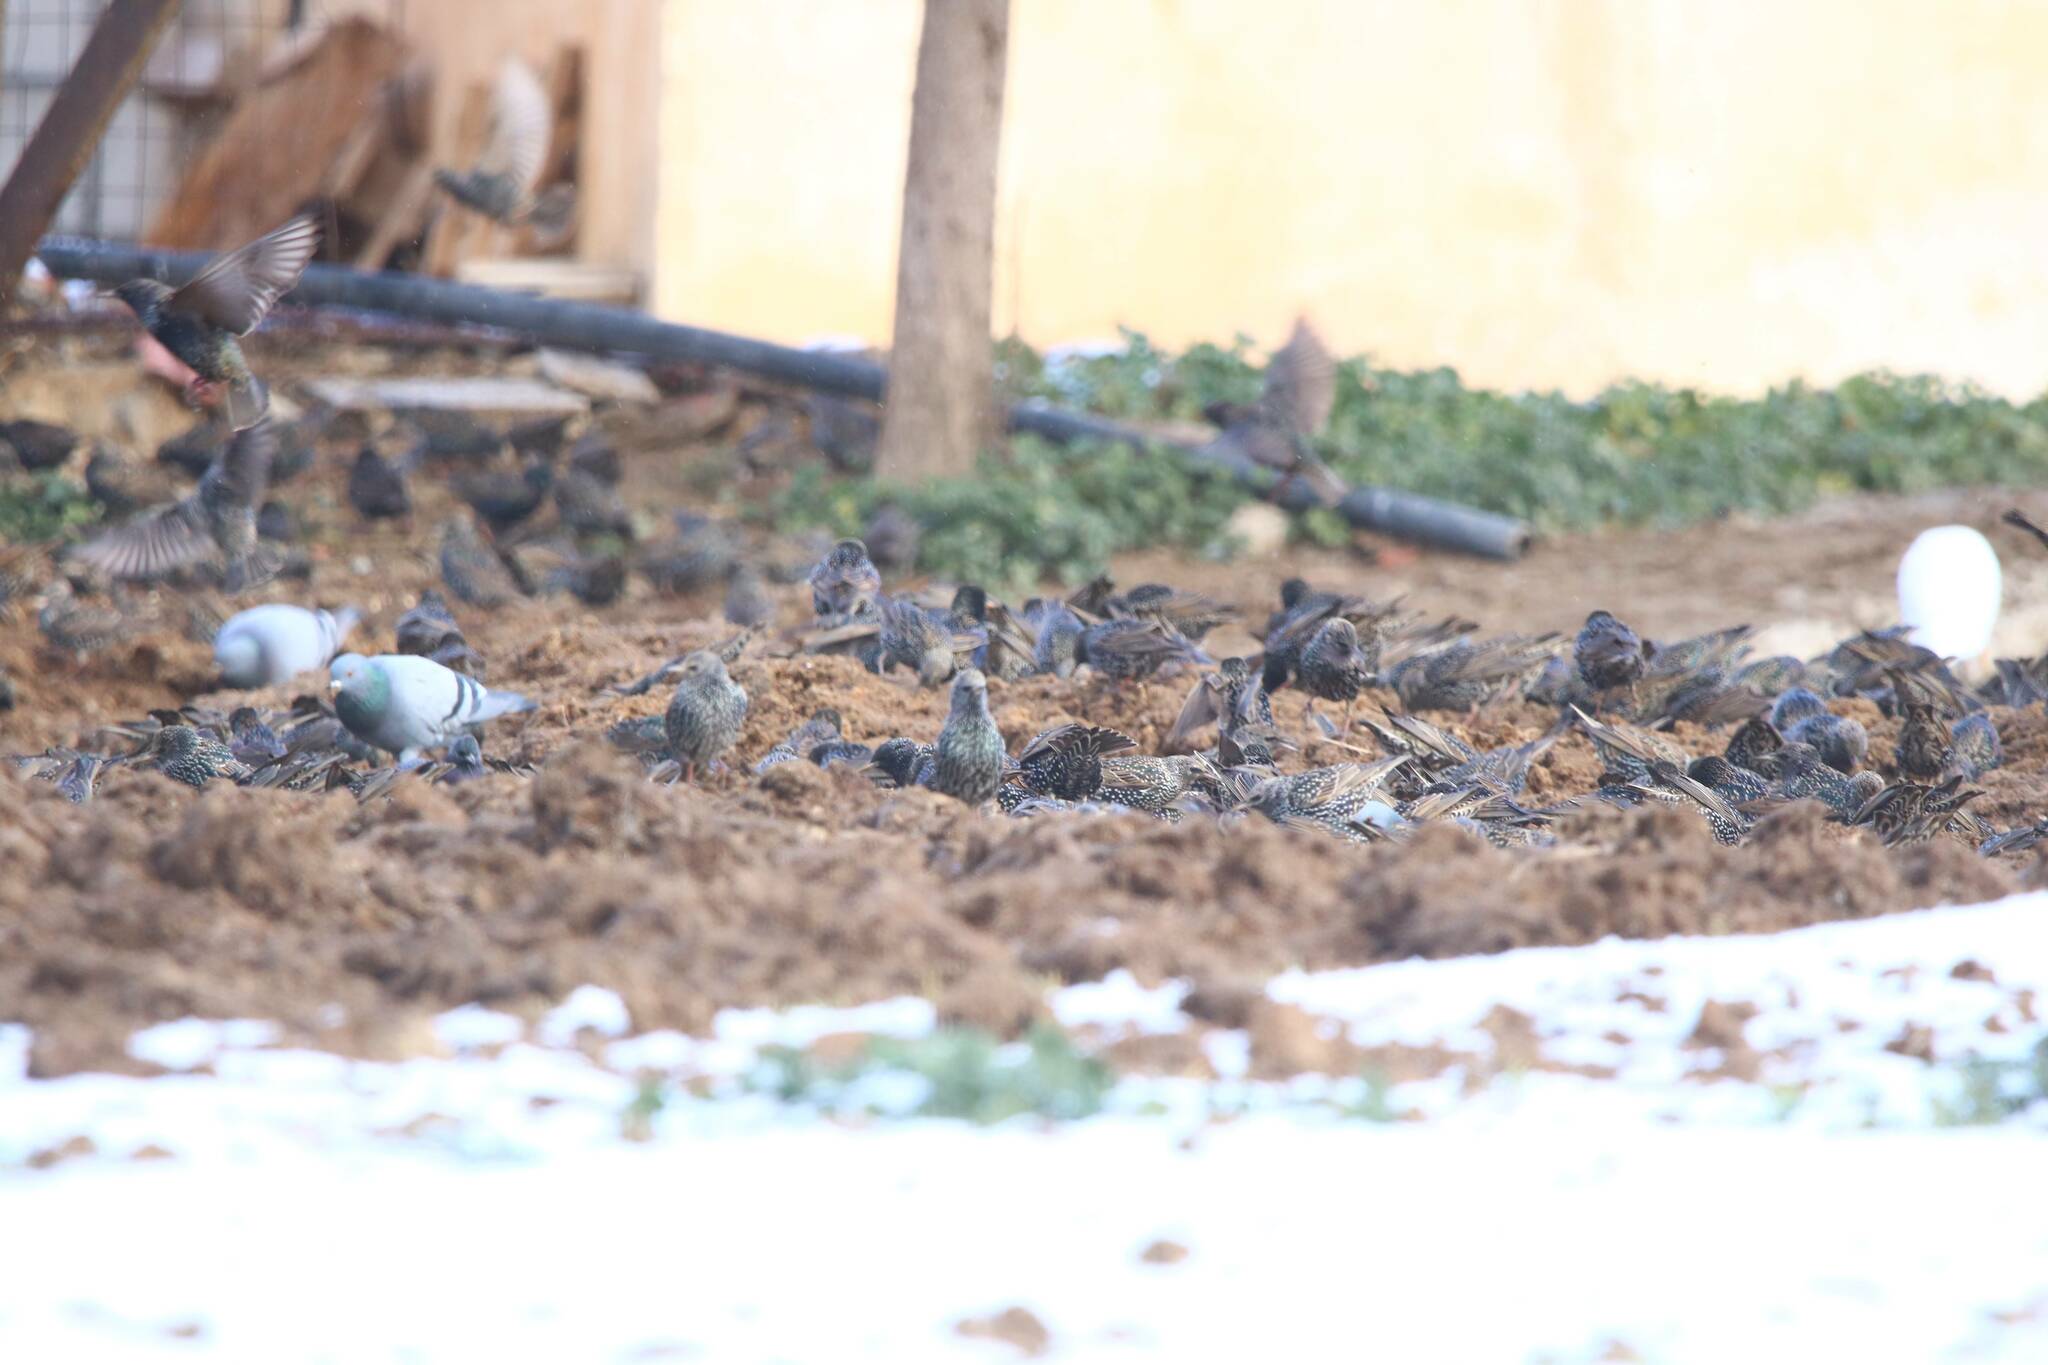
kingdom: Animalia
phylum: Chordata
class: Aves
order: Passeriformes
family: Sturnidae
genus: Sturnus
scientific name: Sturnus vulgaris
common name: Common starling
